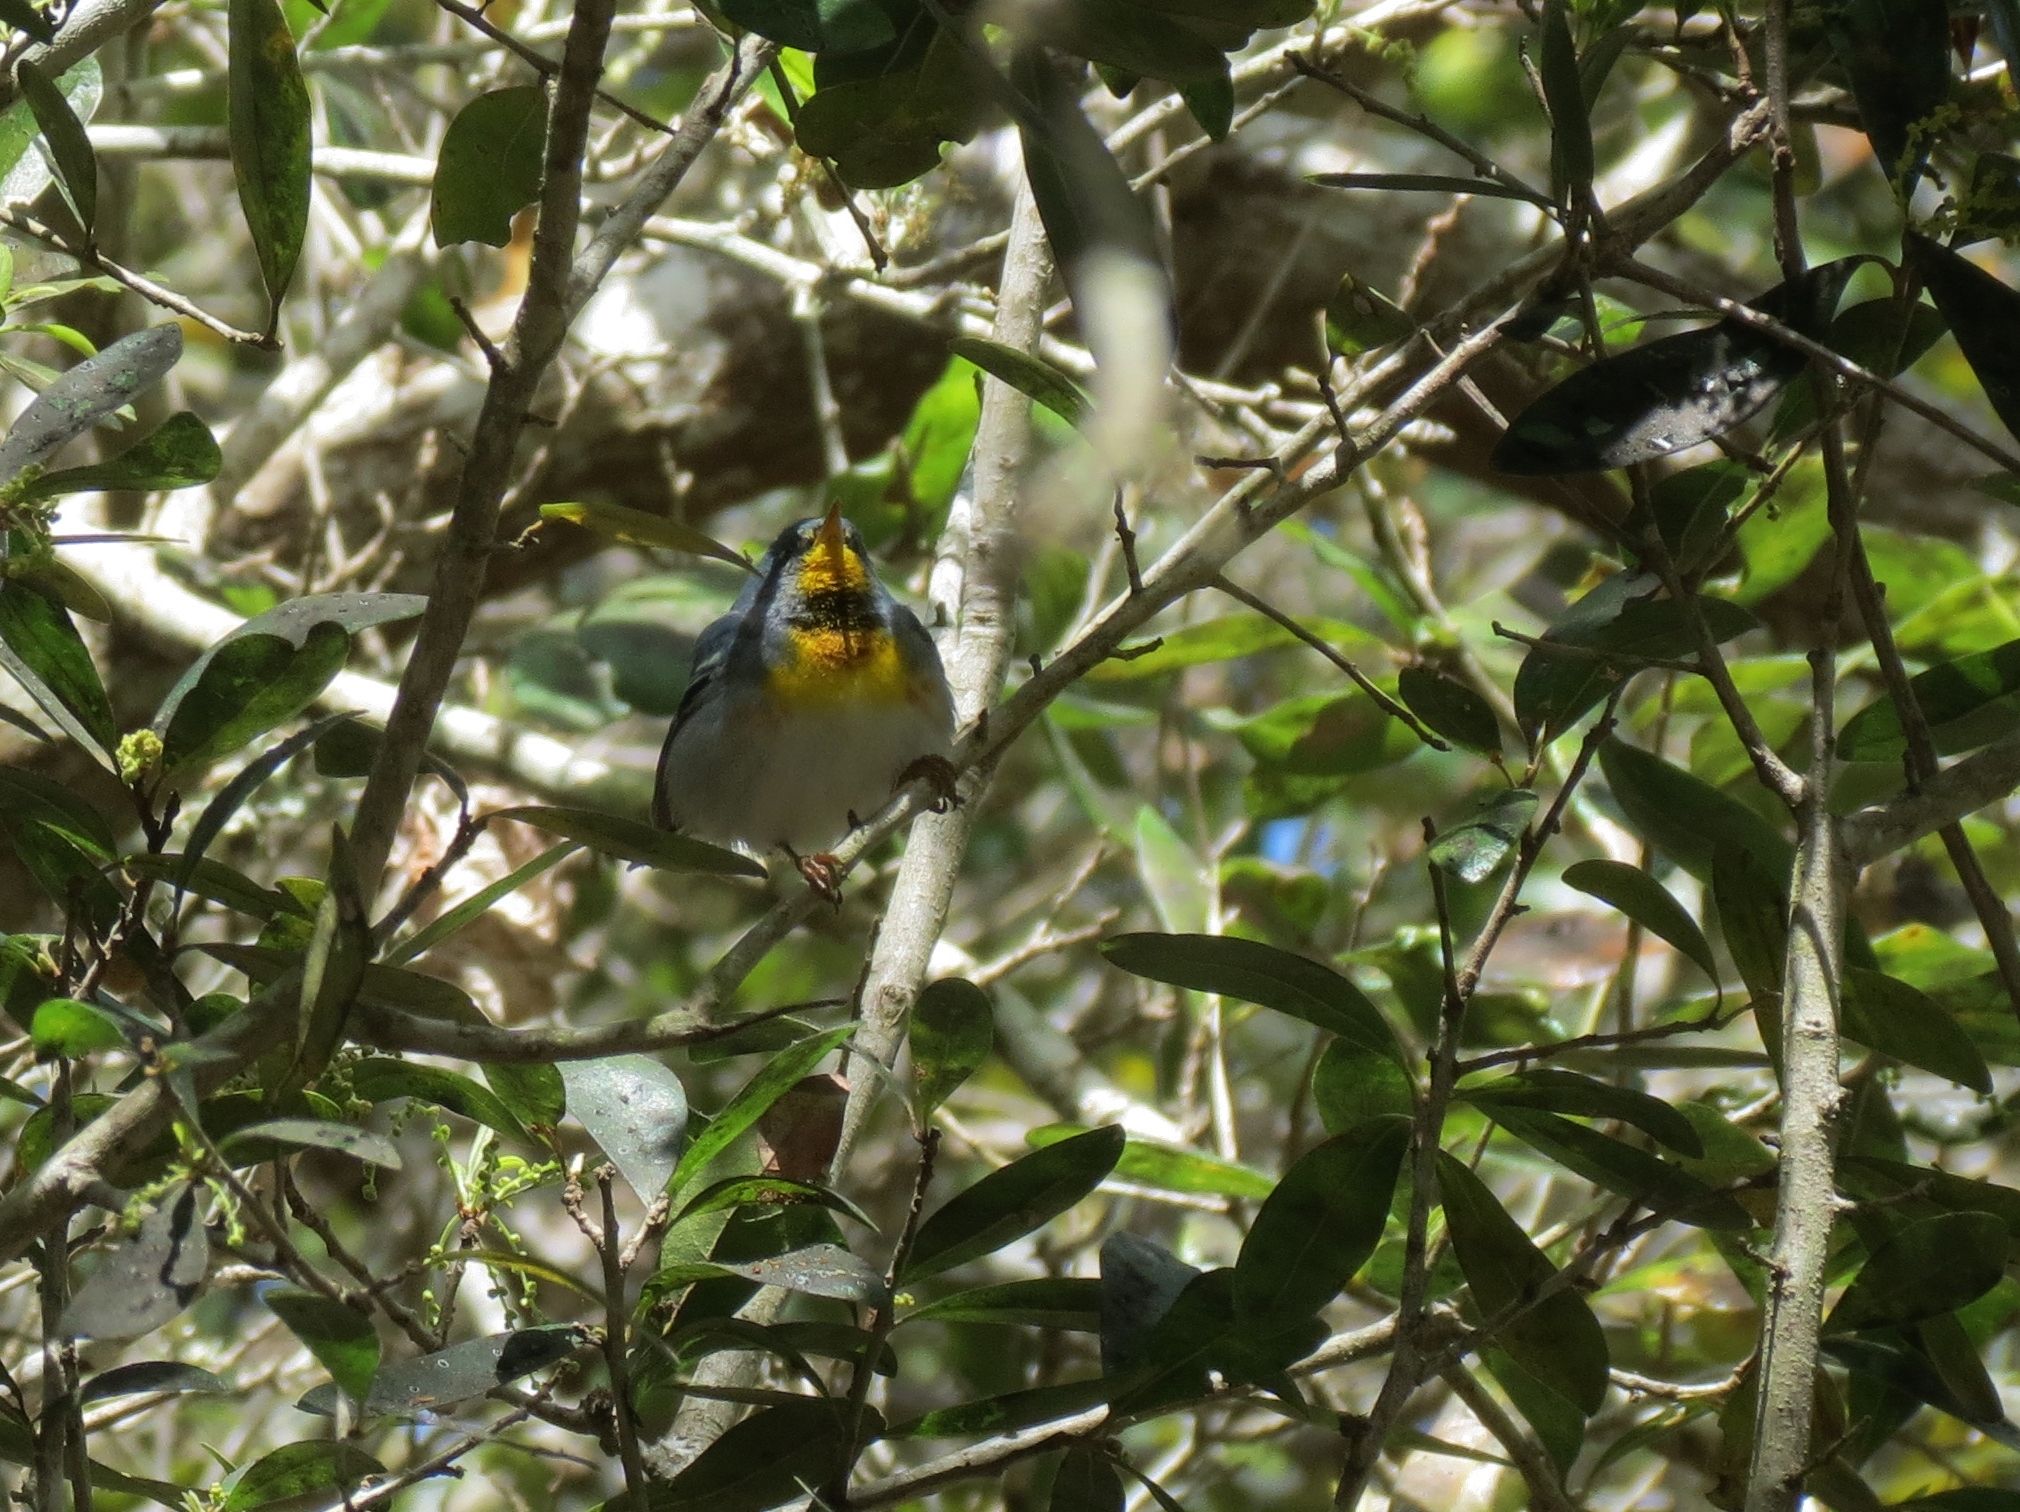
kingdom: Animalia
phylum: Chordata
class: Aves
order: Passeriformes
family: Parulidae
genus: Setophaga
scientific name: Setophaga americana
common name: Northern parula
